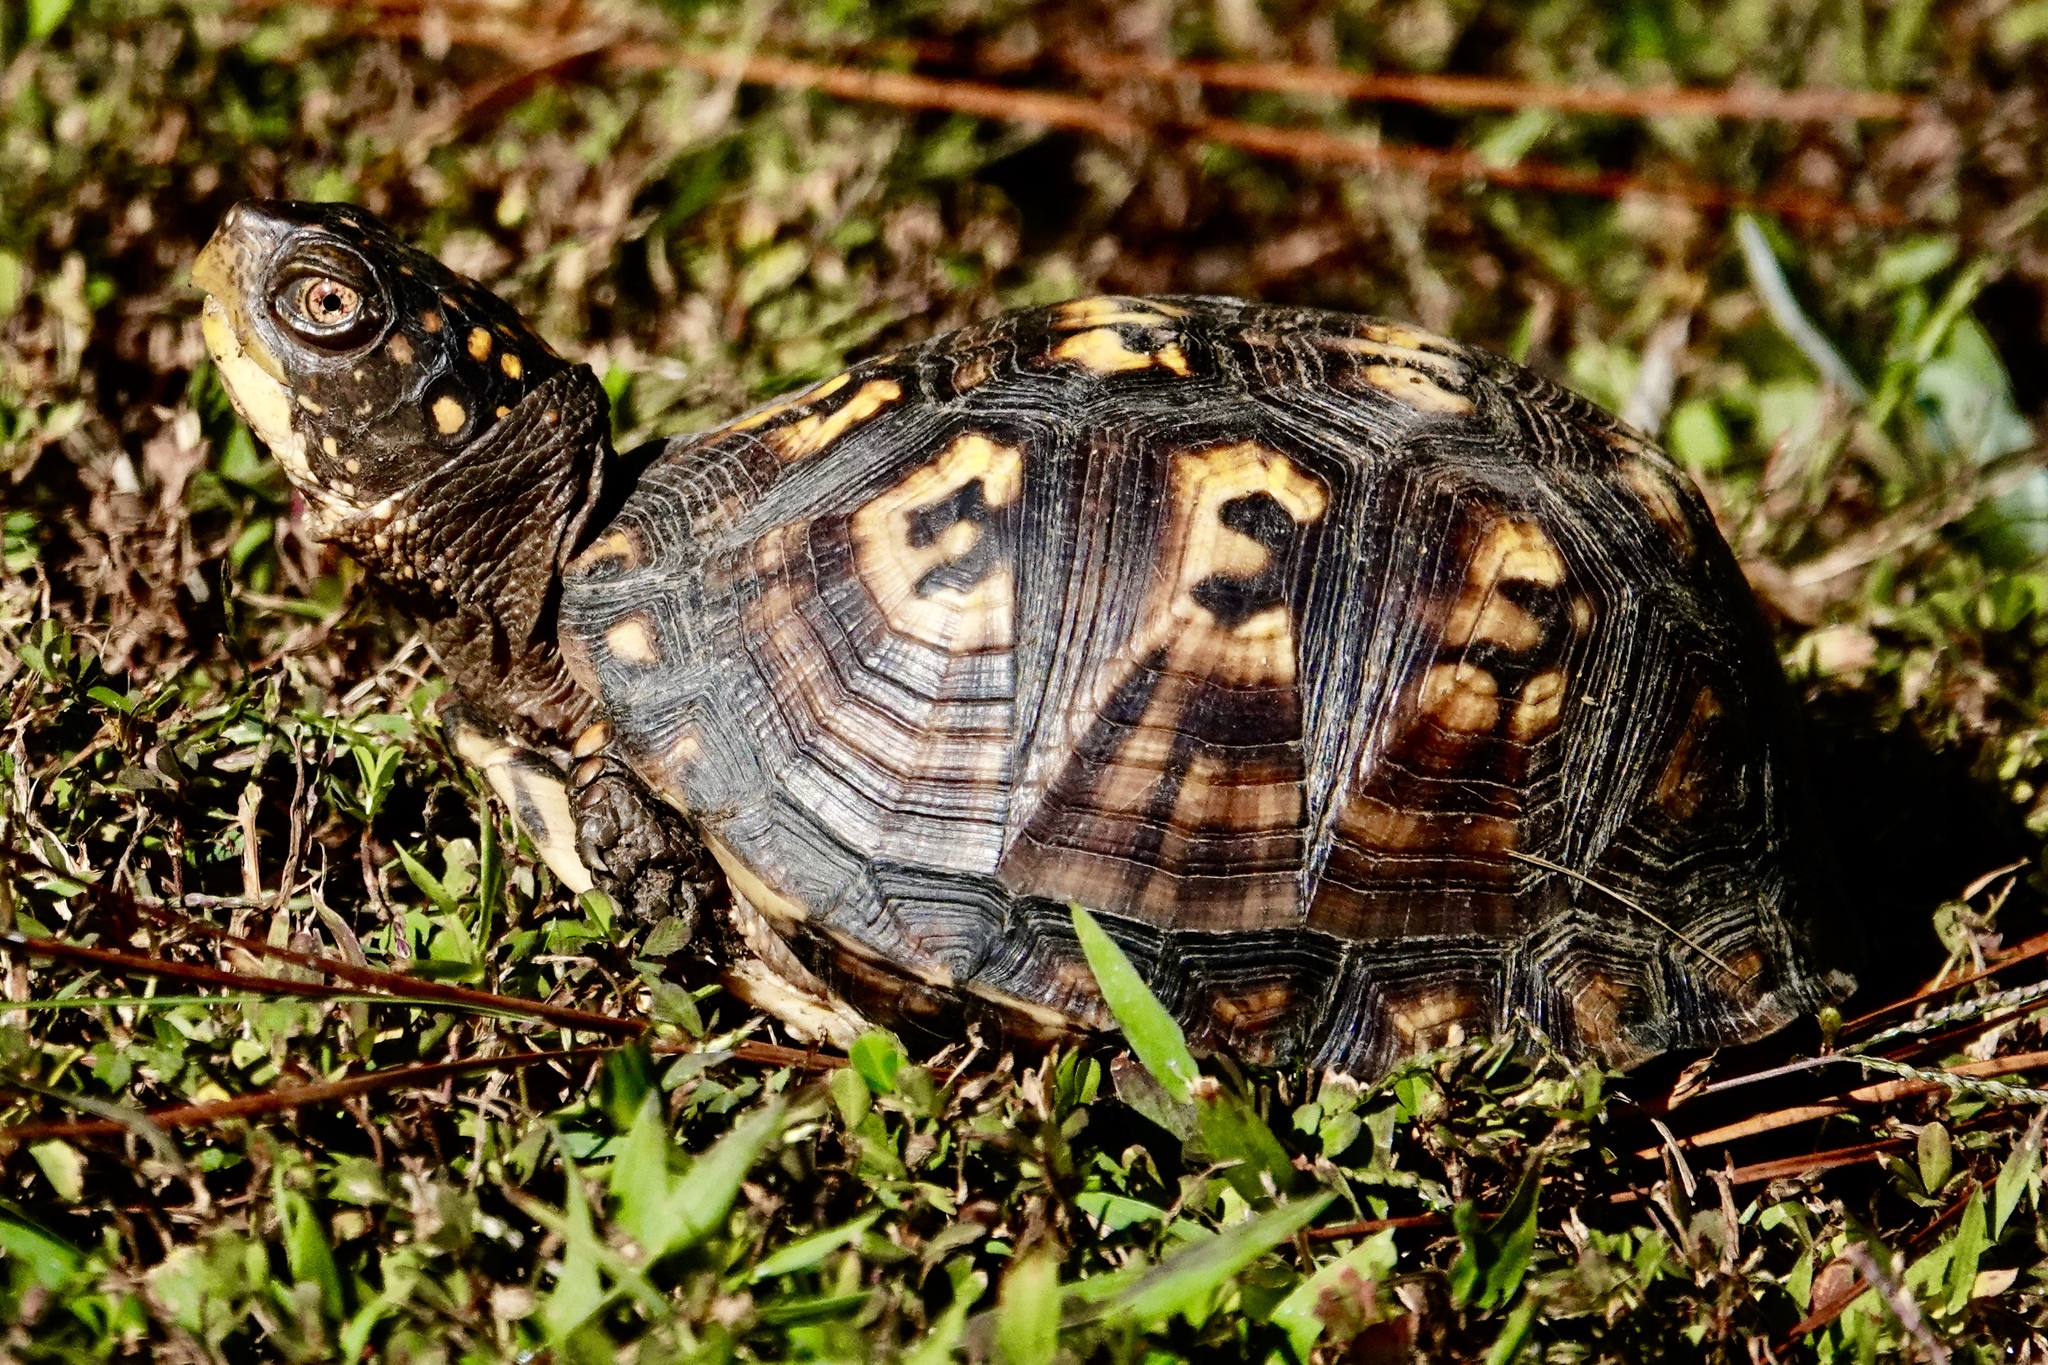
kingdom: Animalia
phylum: Chordata
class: Testudines
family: Emydidae
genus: Terrapene
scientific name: Terrapene carolina
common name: Common box turtle
